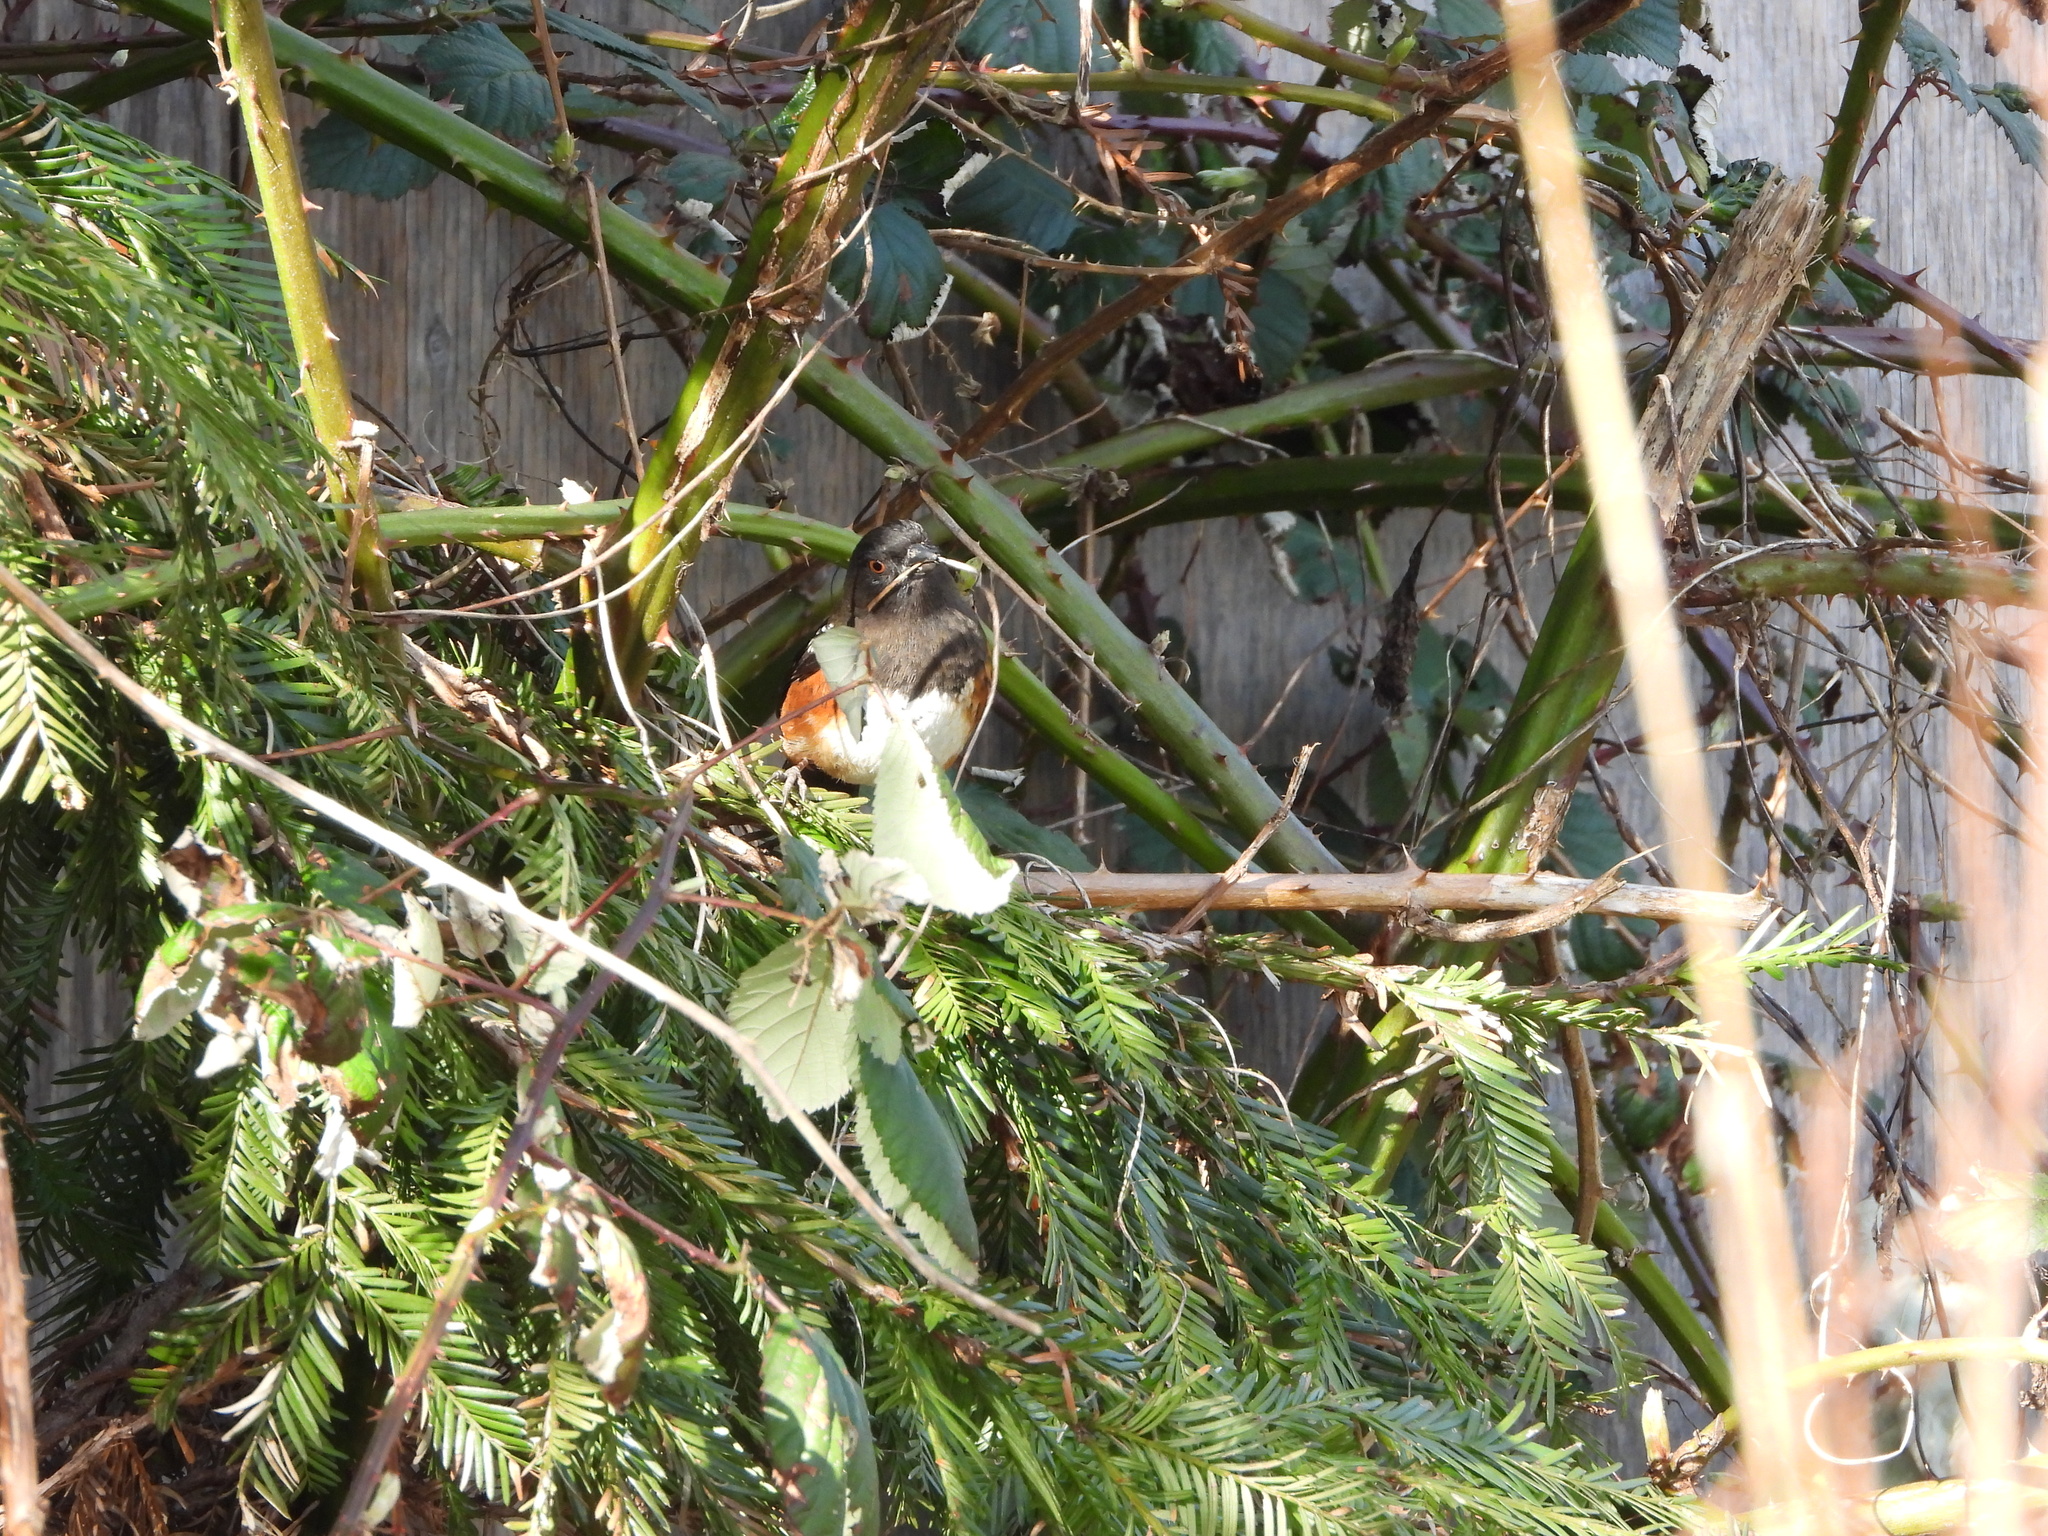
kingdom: Animalia
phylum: Chordata
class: Aves
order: Passeriformes
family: Passerellidae
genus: Pipilo
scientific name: Pipilo maculatus
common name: Spotted towhee
